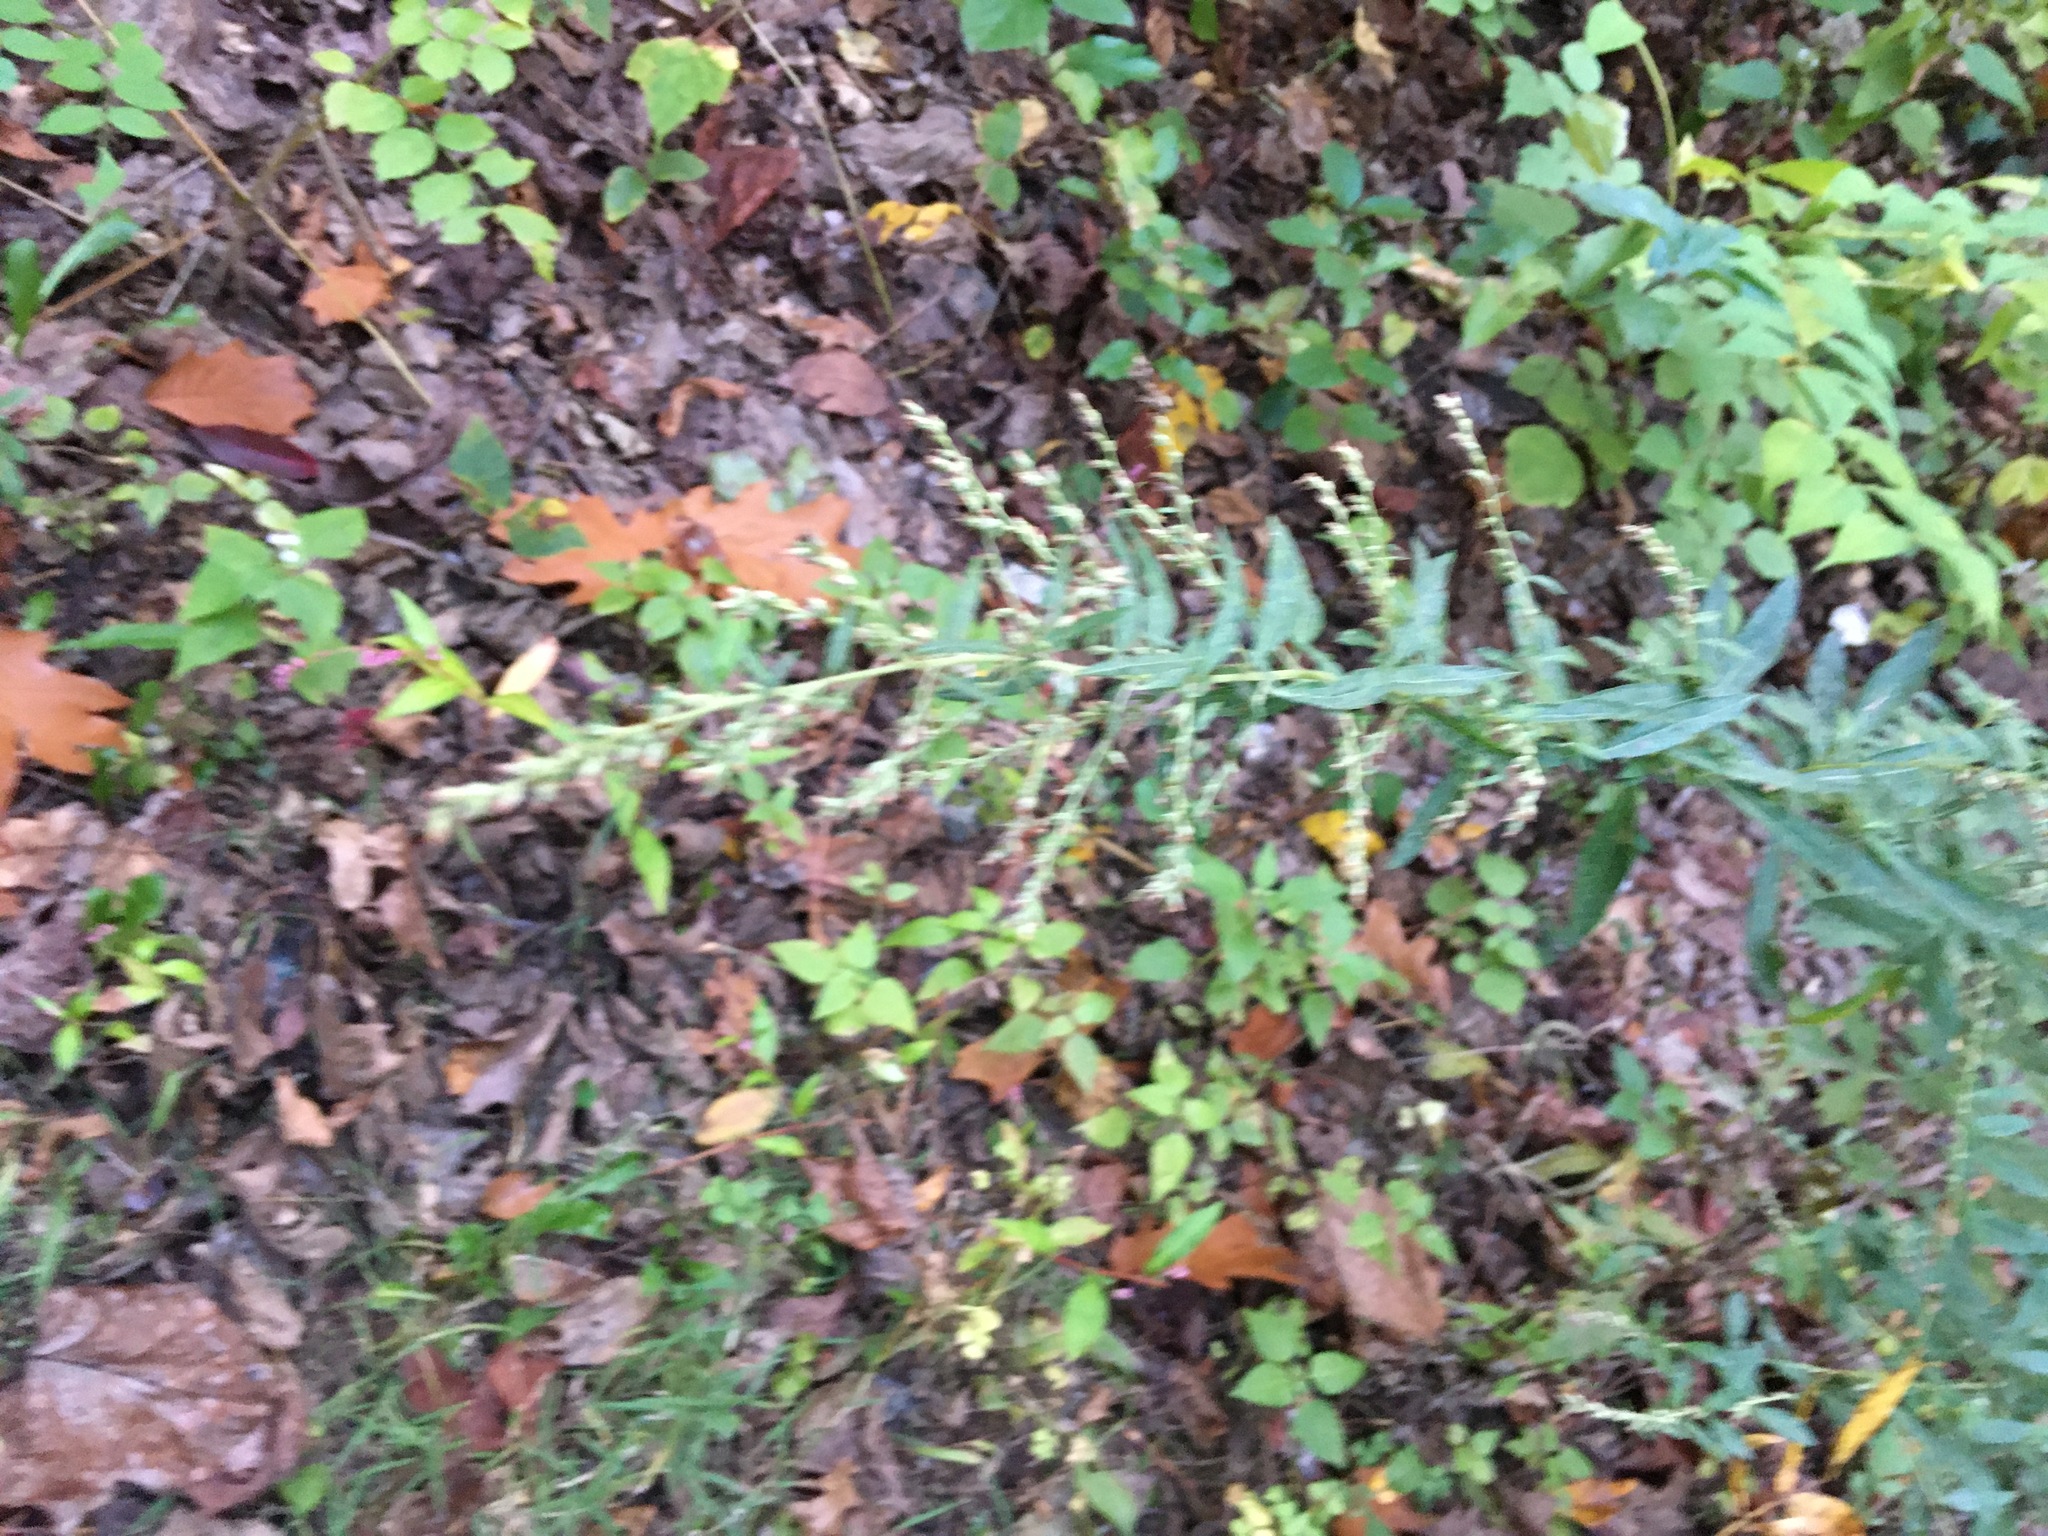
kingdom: Plantae
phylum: Tracheophyta
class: Magnoliopsida
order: Asterales
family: Asteraceae
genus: Artemisia
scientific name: Artemisia vulgaris
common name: Mugwort
